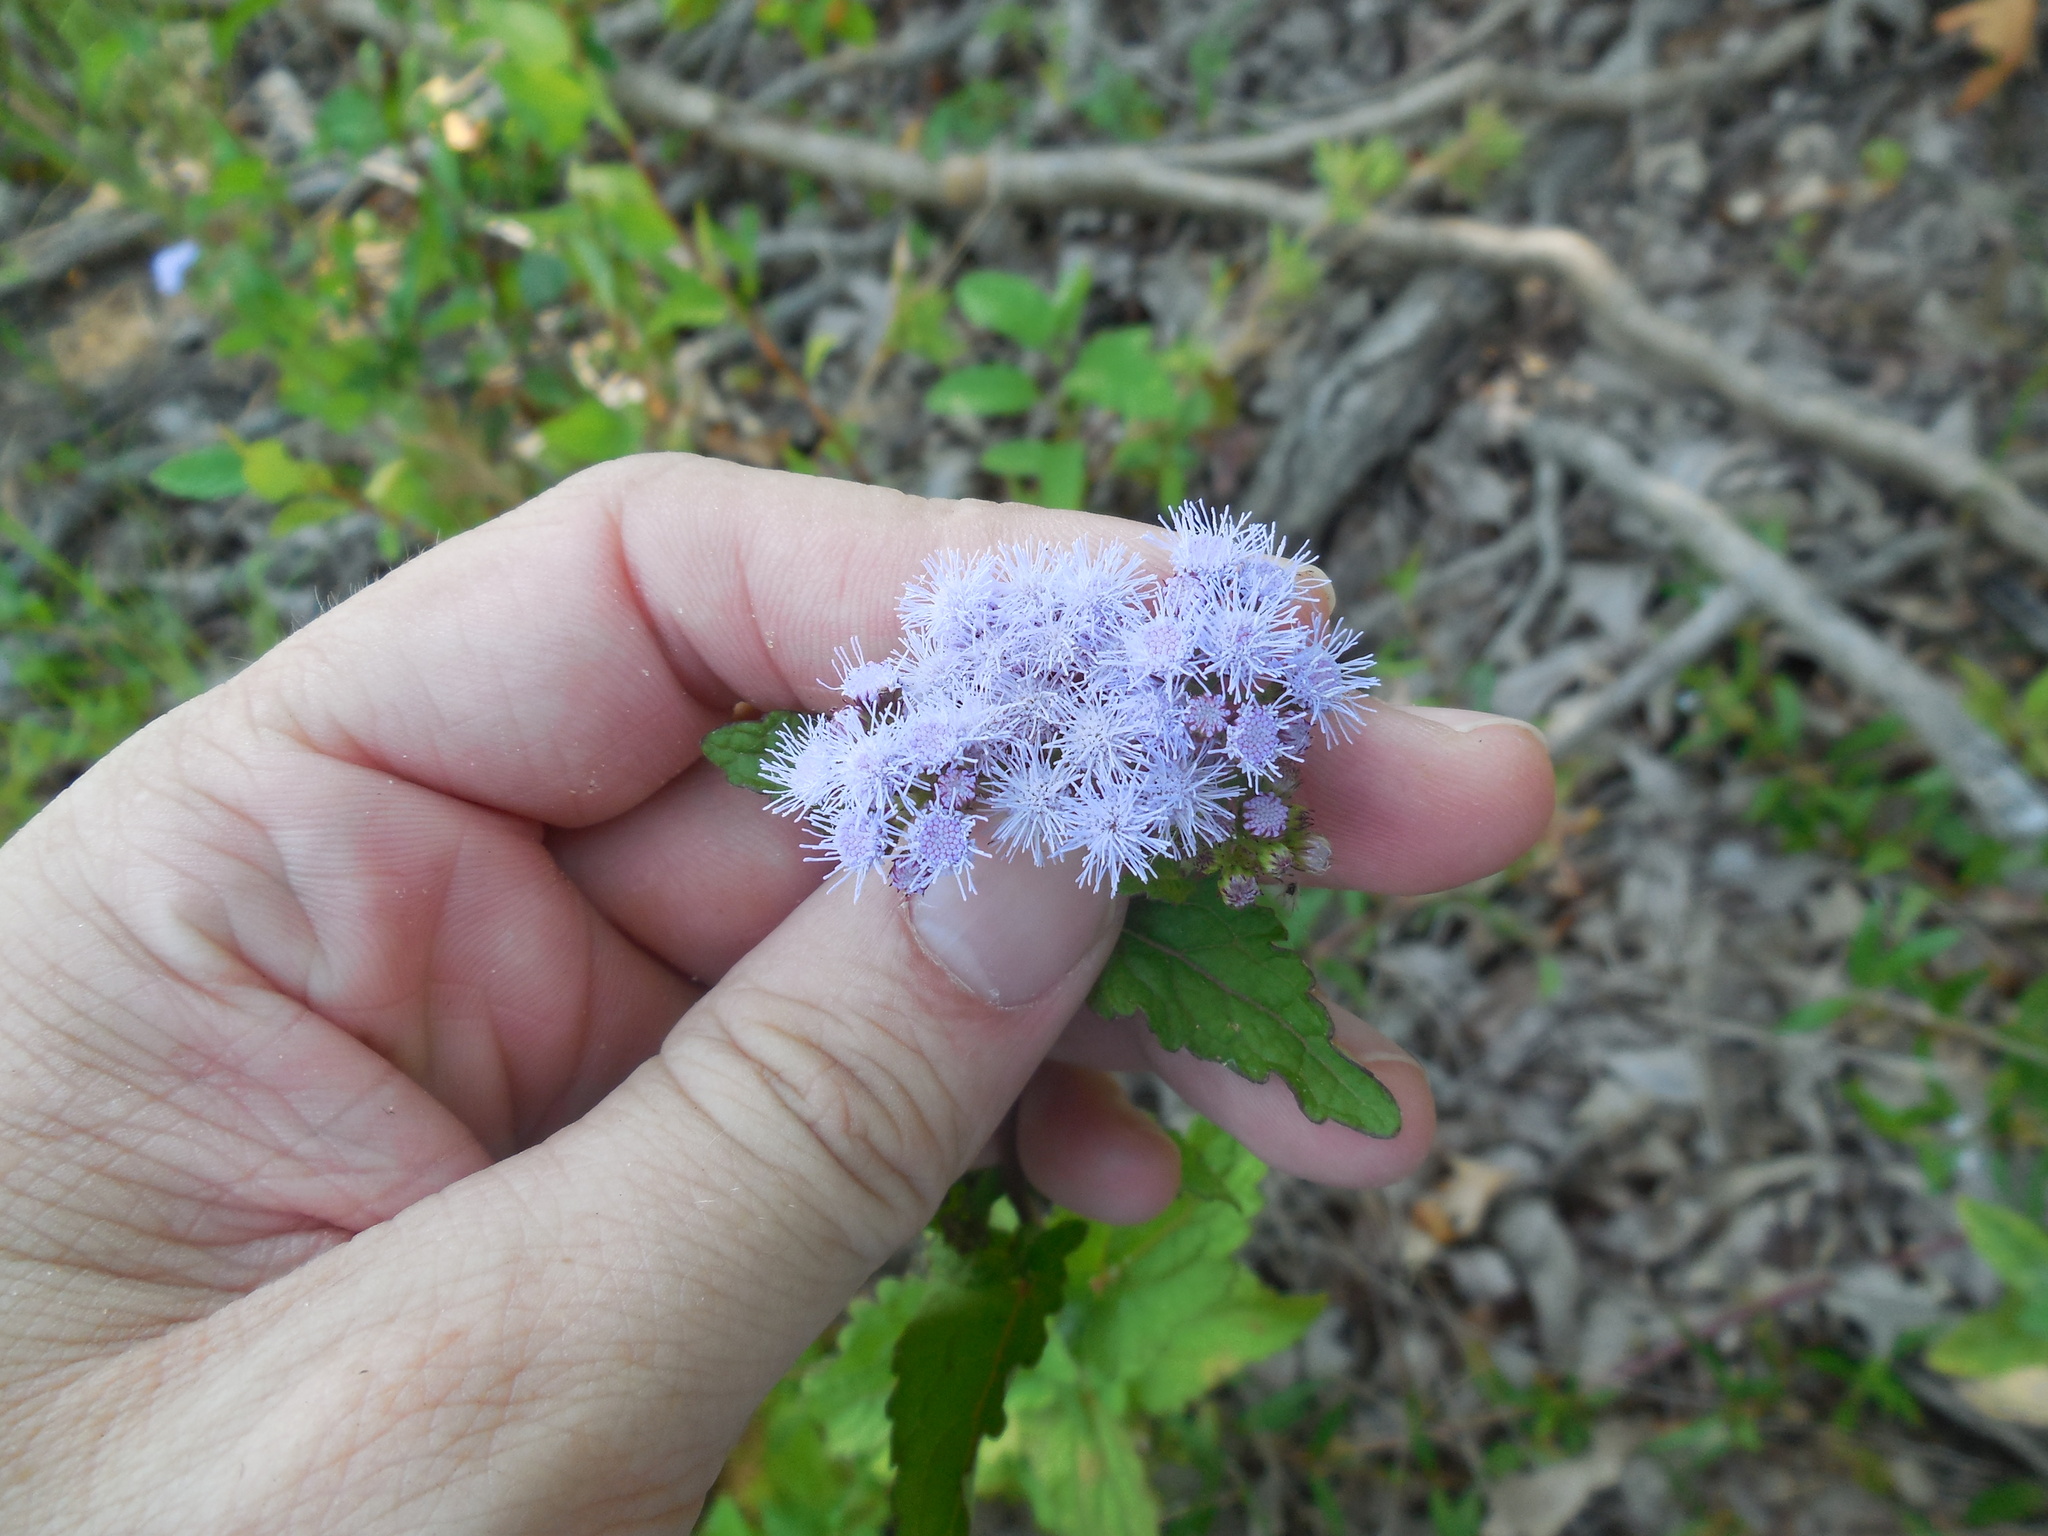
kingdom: Plantae
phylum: Tracheophyta
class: Magnoliopsida
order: Asterales
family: Asteraceae
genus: Conoclinium
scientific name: Conoclinium coelestinum
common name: Blue mistflower
